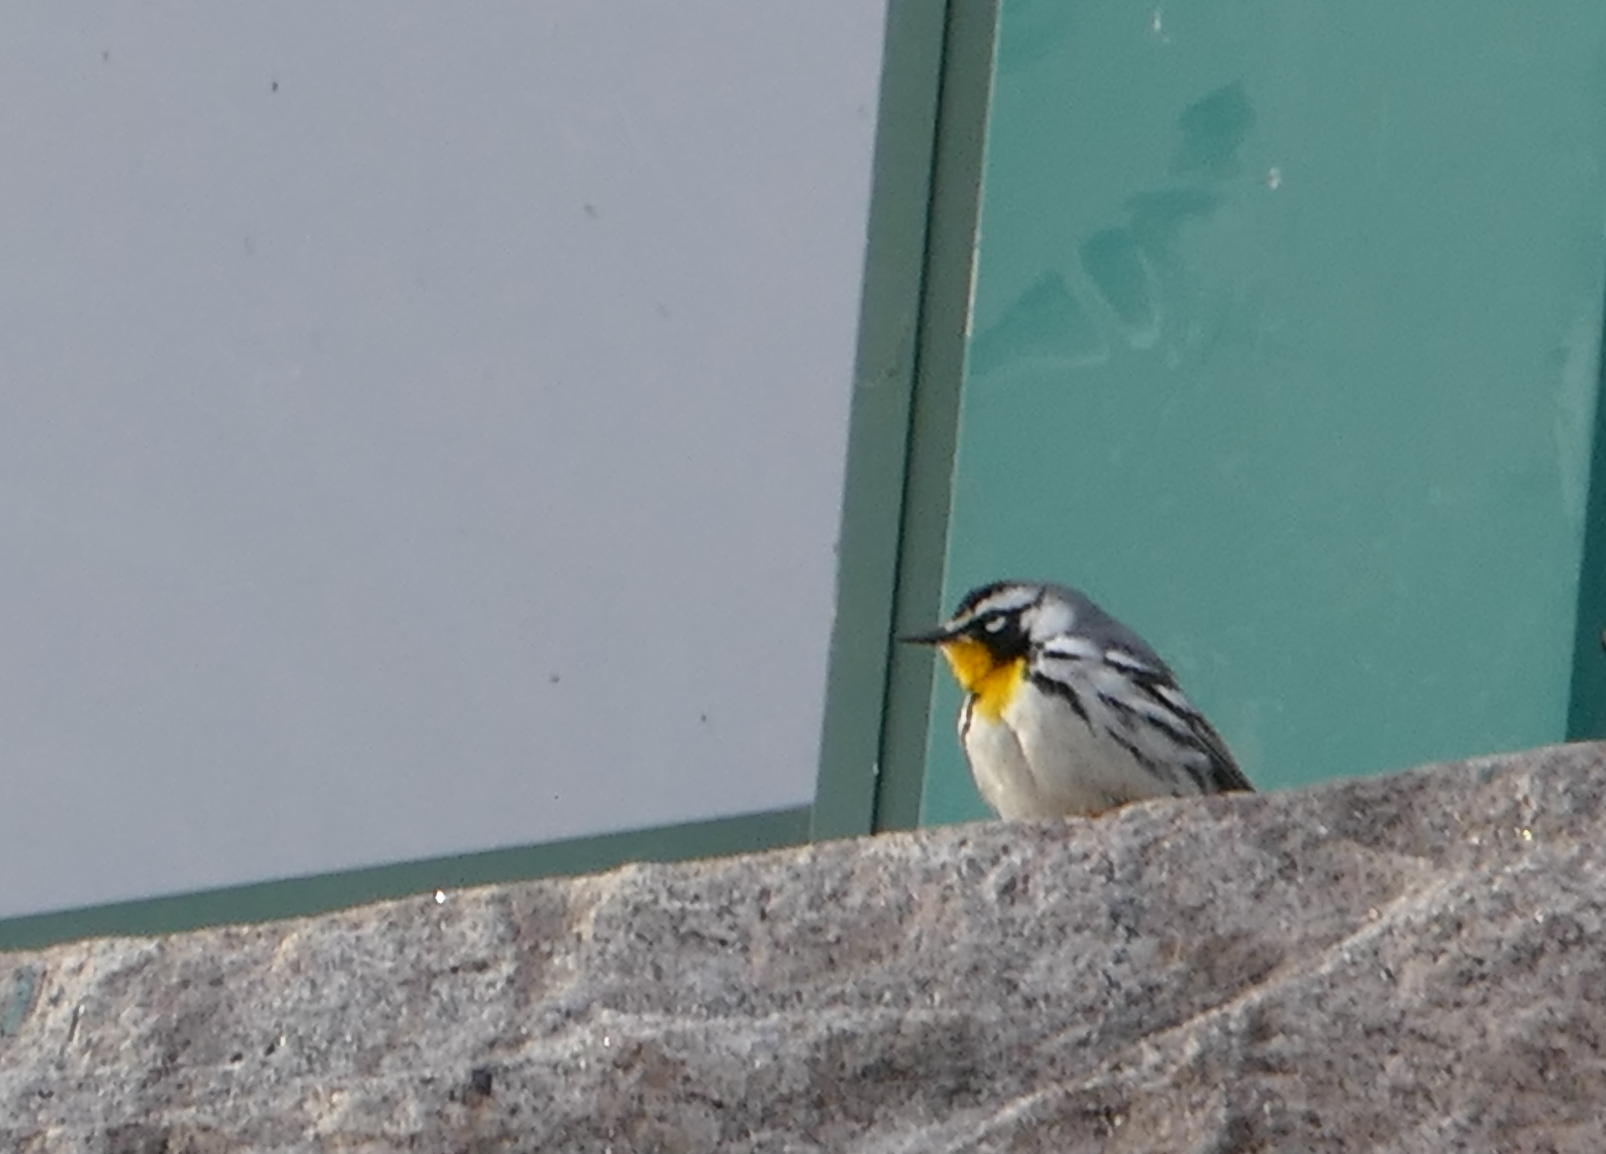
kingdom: Animalia
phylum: Chordata
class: Aves
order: Passeriformes
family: Parulidae
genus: Setophaga
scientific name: Setophaga dominica
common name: Yellow-throated warbler
